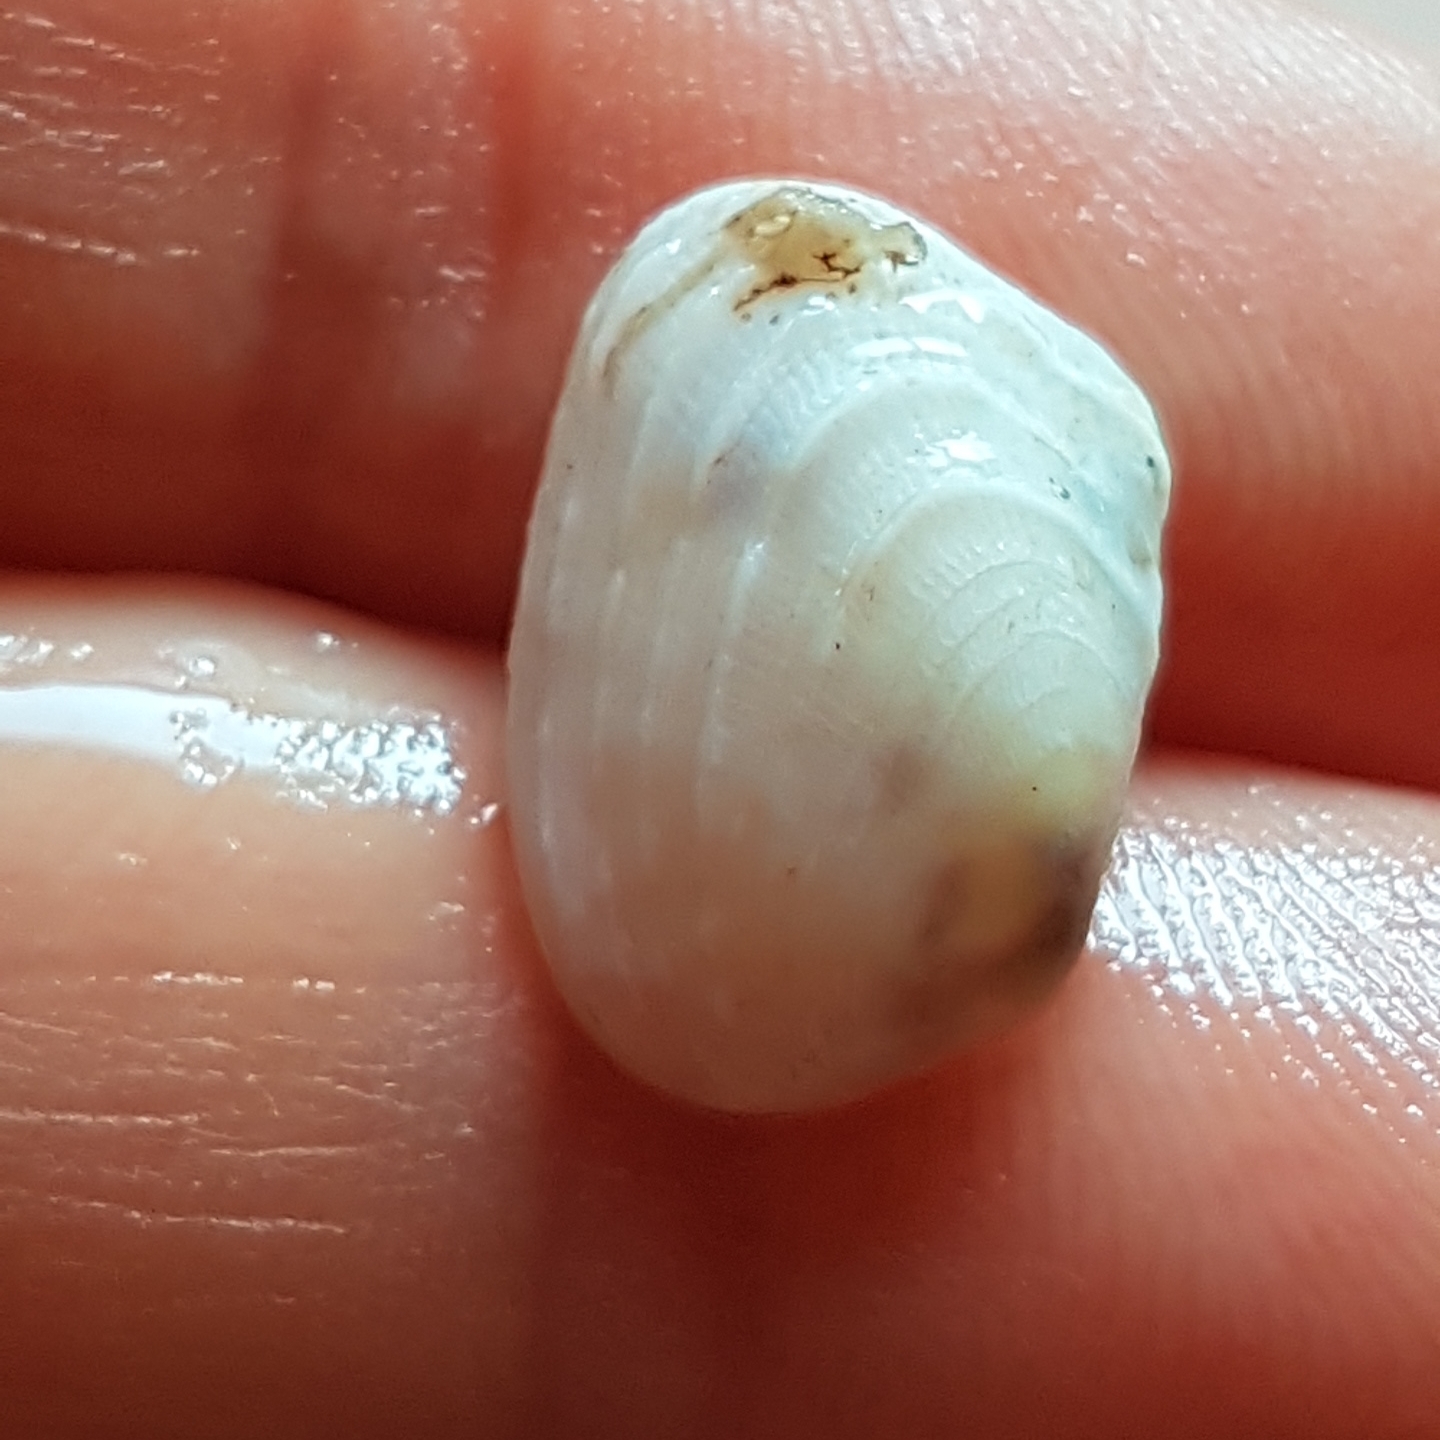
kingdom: Animalia
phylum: Mollusca
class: Bivalvia
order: Venerida
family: Veneridae
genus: Irus
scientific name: Irus irus
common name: Irus clam
